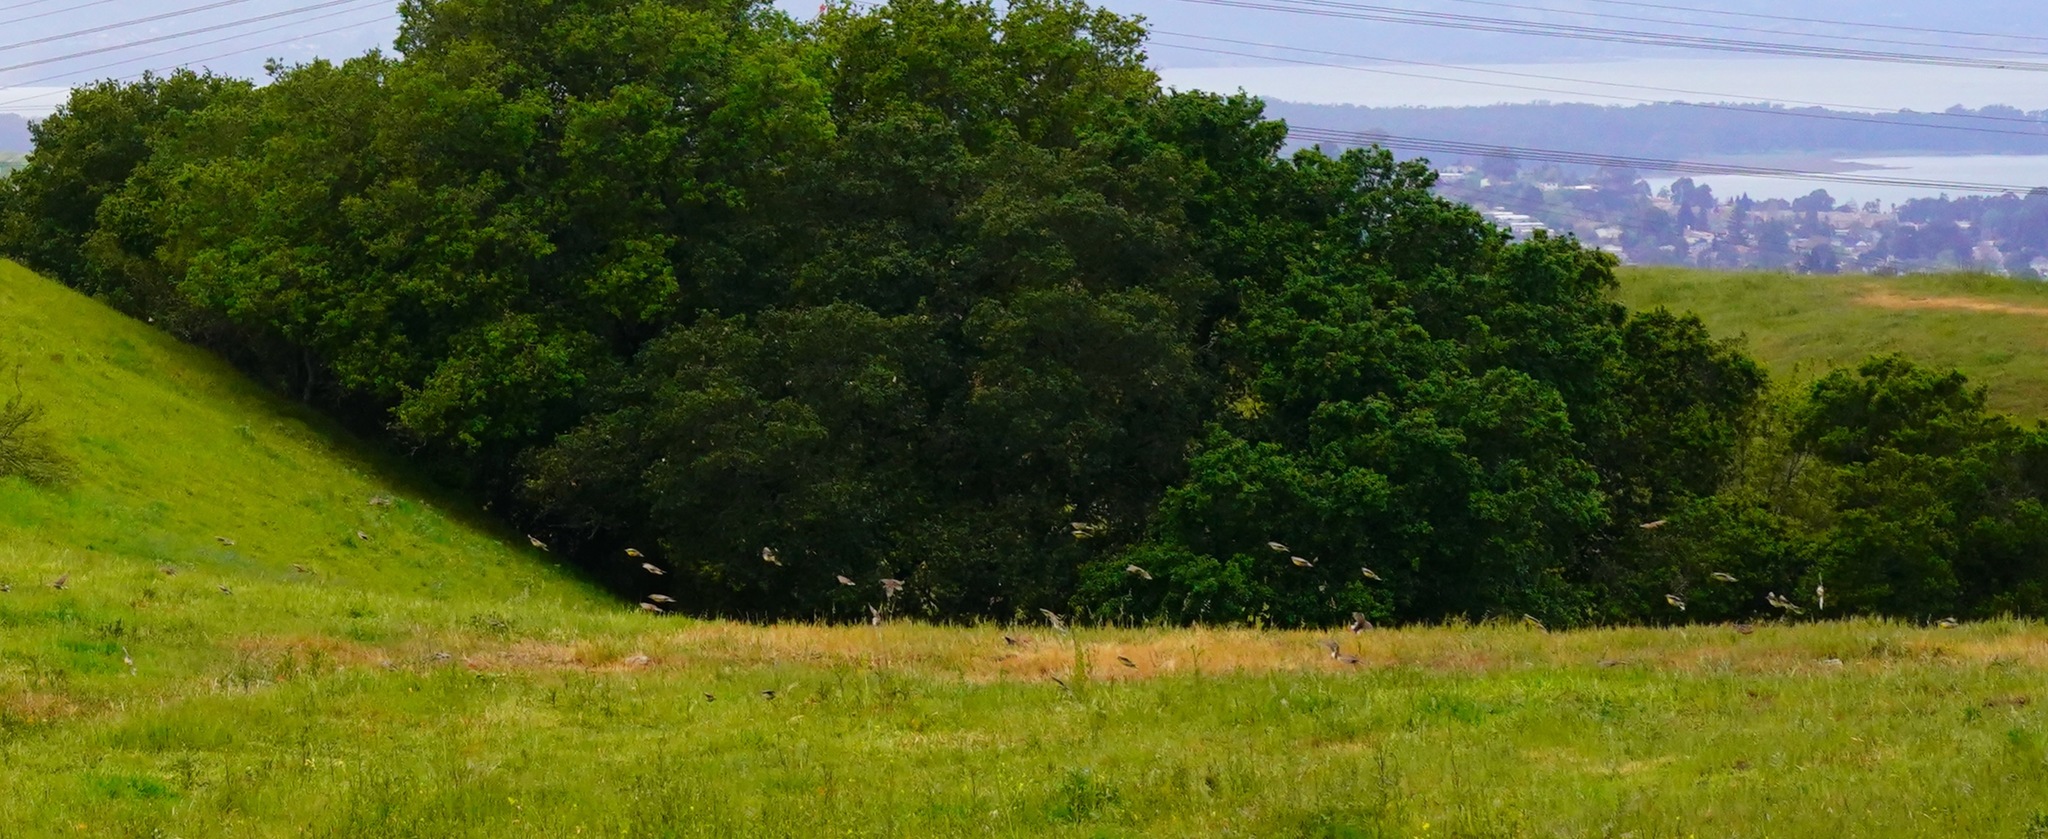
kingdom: Animalia
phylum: Chordata
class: Aves
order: Passeriformes
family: Icteridae
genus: Sturnella
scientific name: Sturnella neglecta
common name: Western meadowlark
